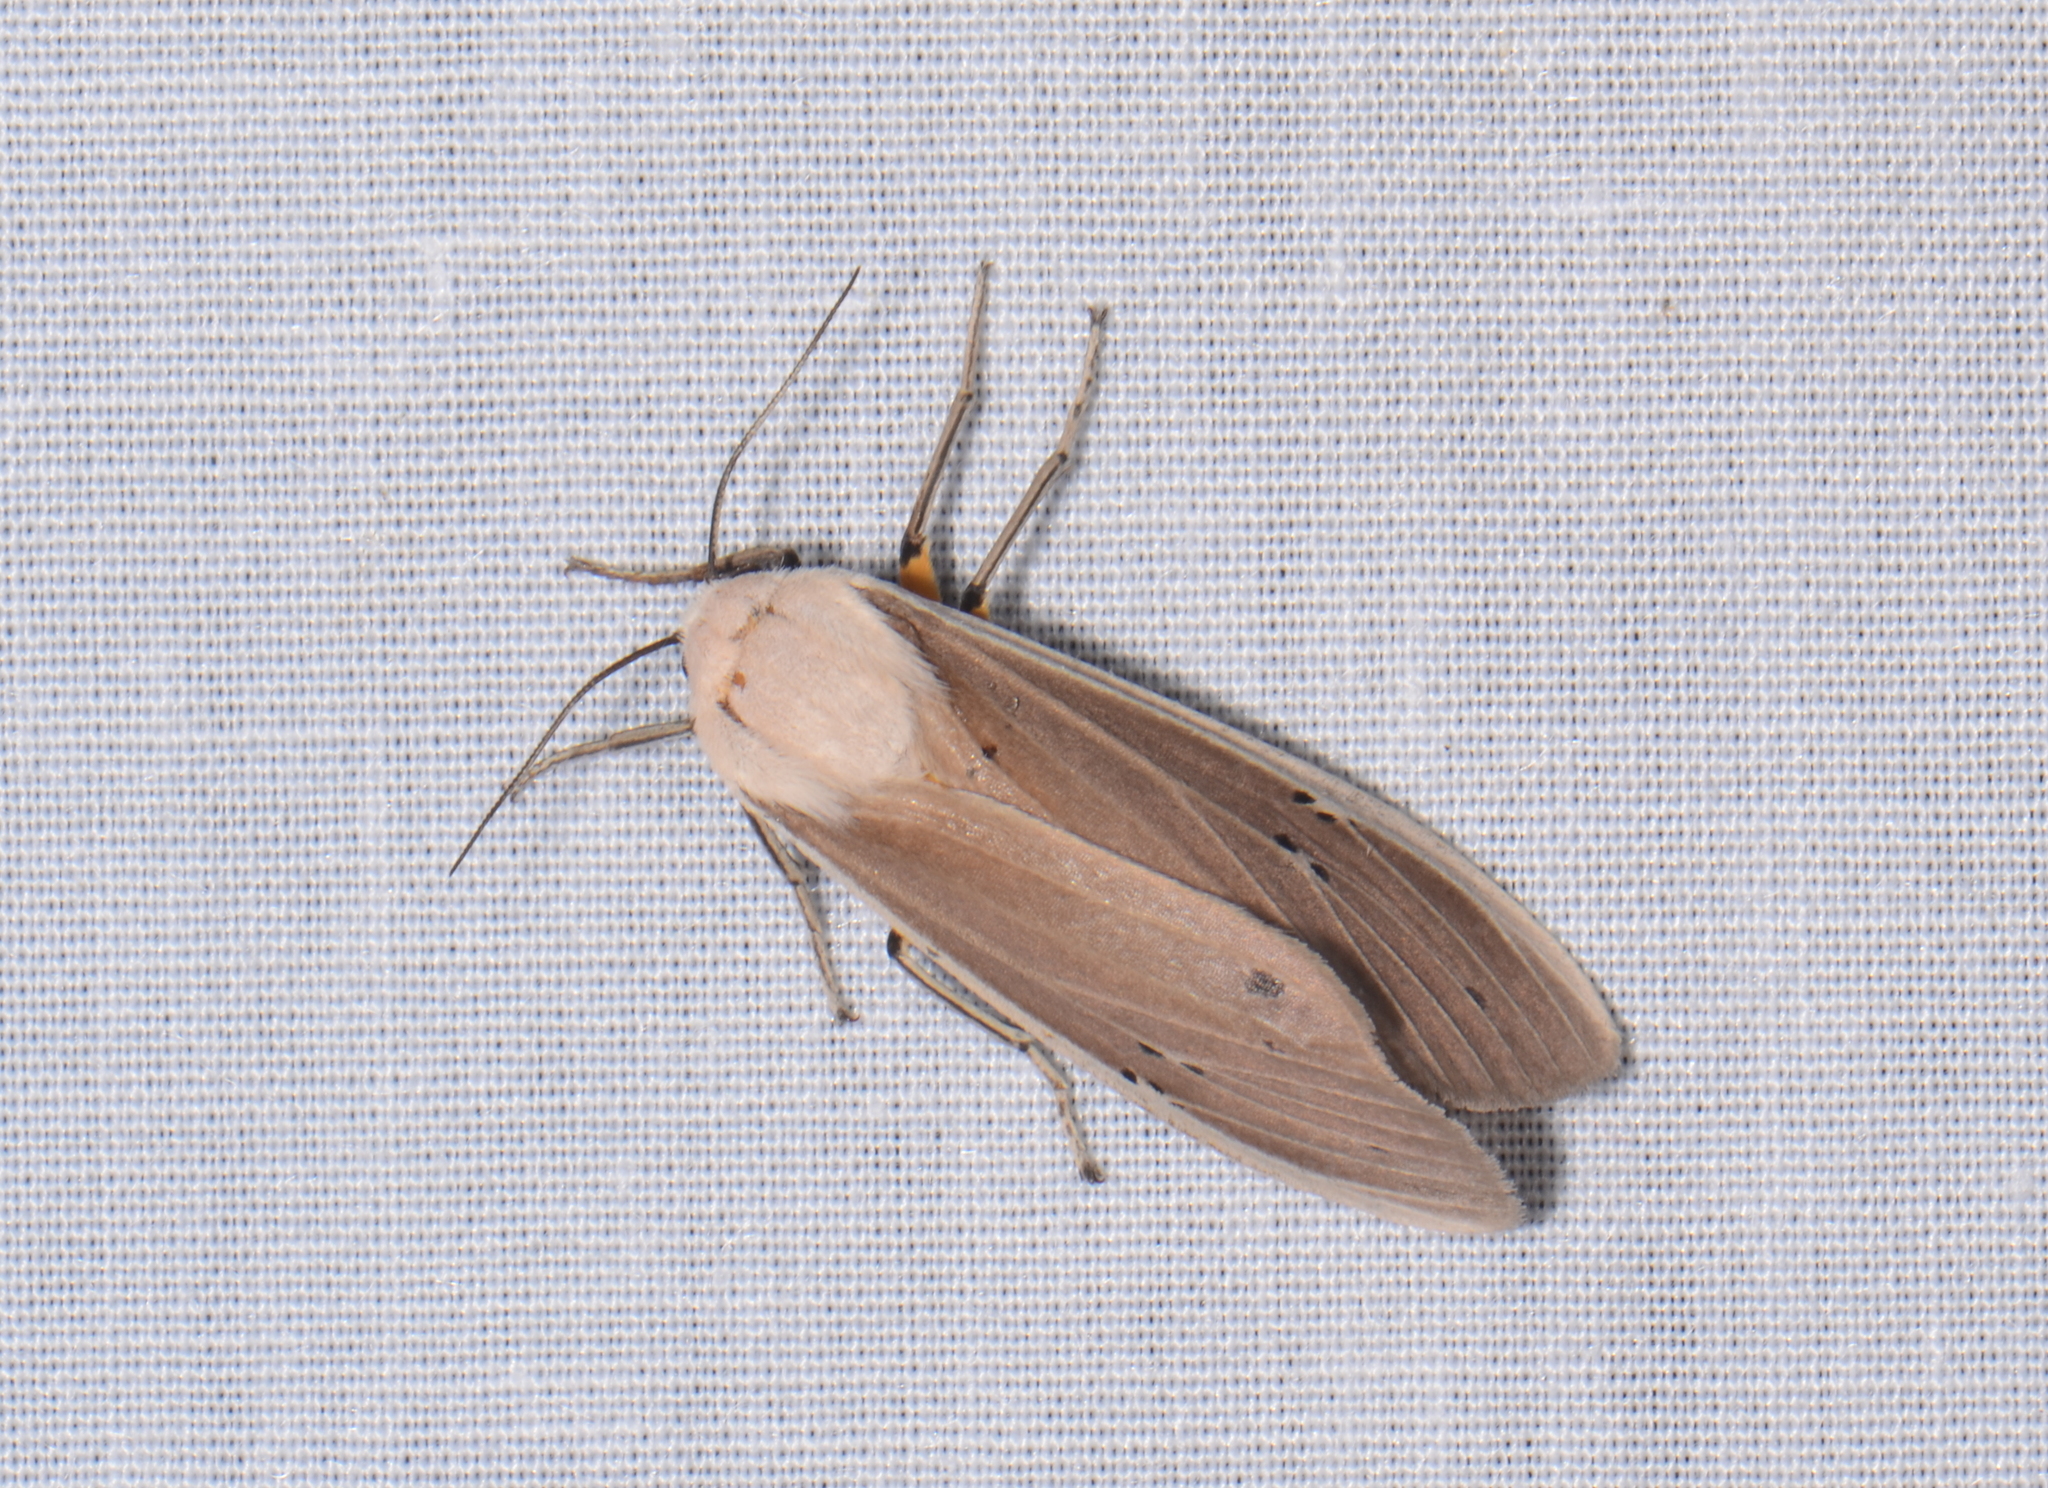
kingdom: Animalia
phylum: Arthropoda
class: Insecta
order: Lepidoptera
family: Erebidae
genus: Creatonotos
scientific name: Creatonotos transiens
